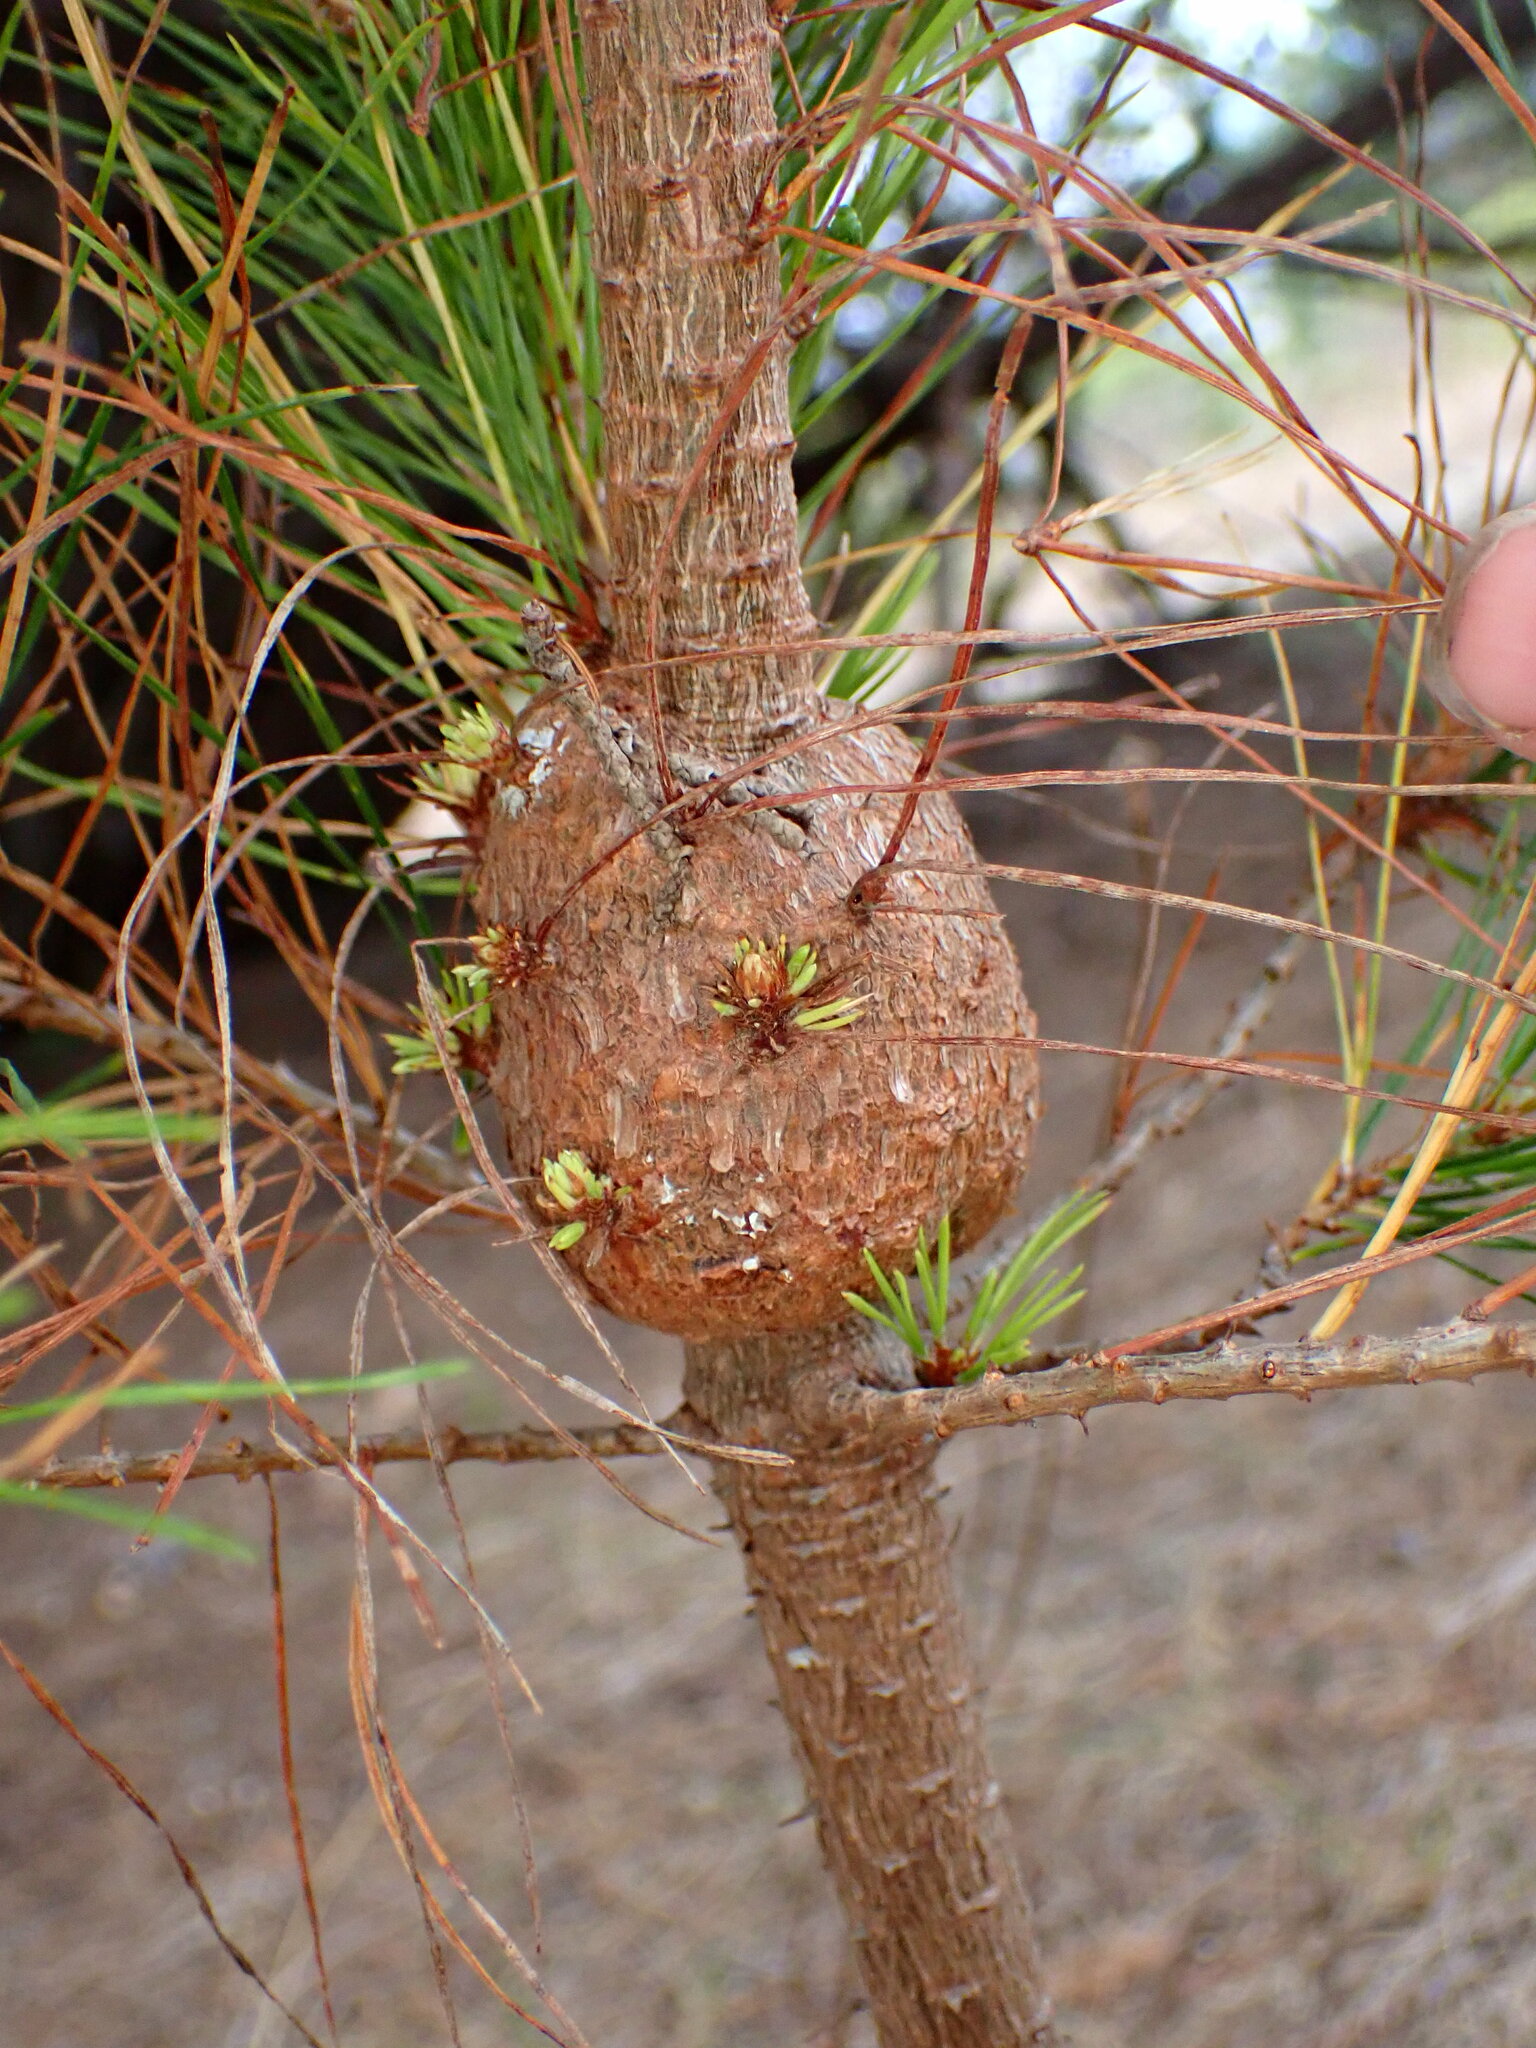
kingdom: Fungi
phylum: Basidiomycota
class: Pucciniomycetes
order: Pucciniales
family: Cronartiaceae
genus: Cronartium
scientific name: Cronartium harknessii
